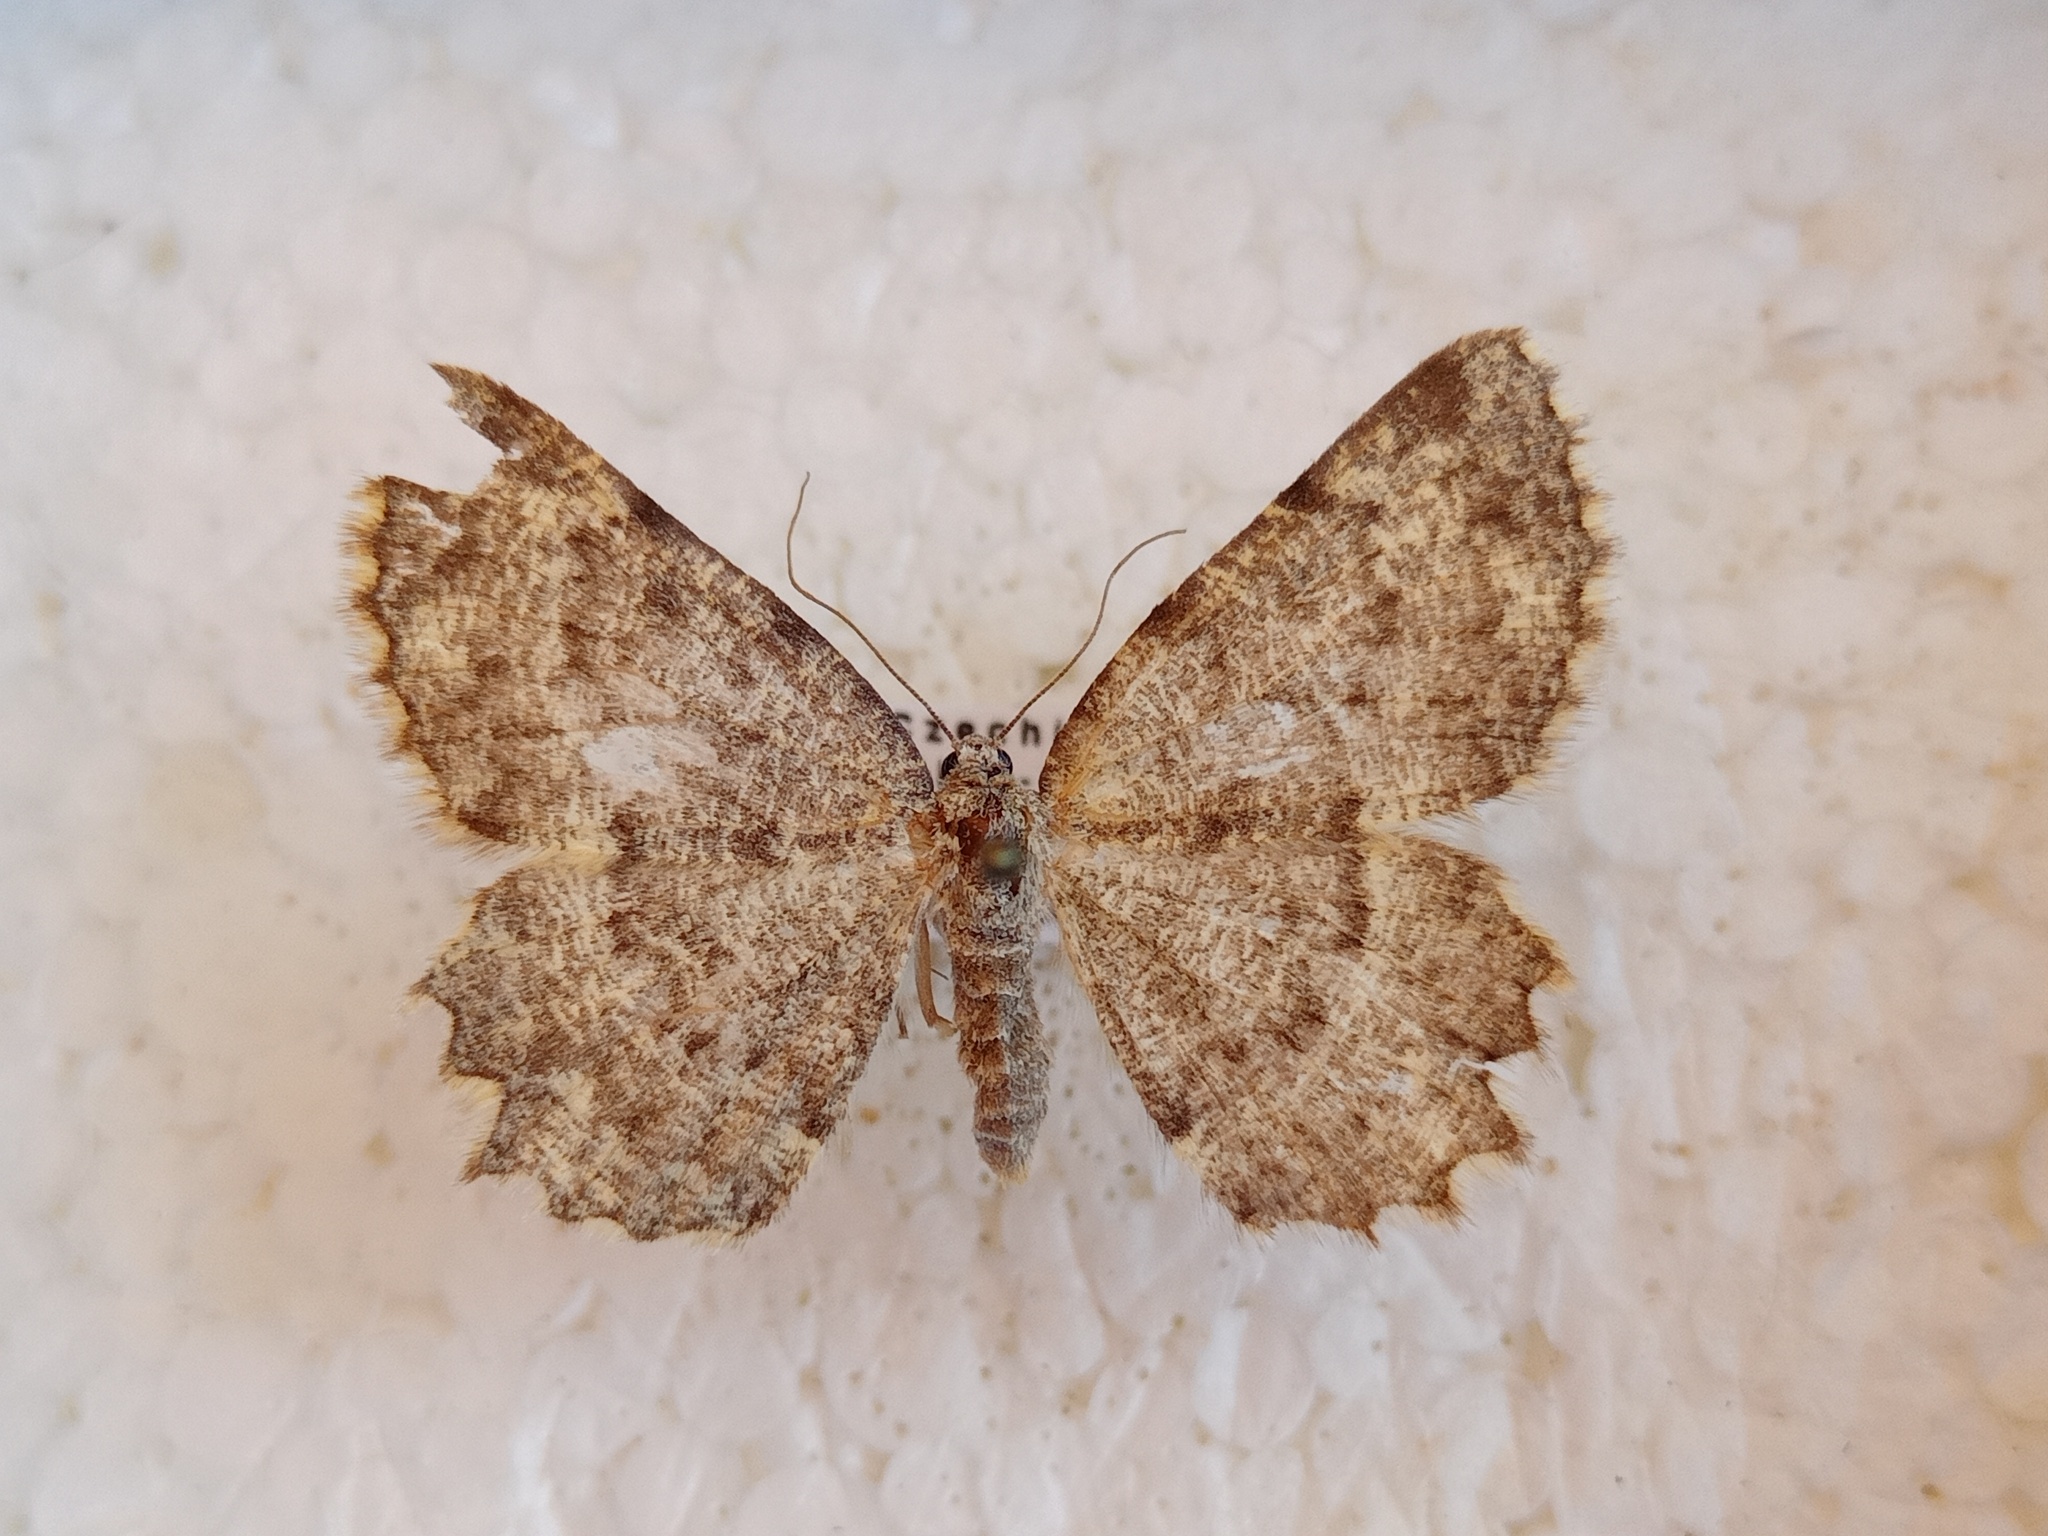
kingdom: Animalia
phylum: Arthropoda
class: Insecta
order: Lepidoptera
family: Geometridae
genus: Charissa
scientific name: Charissa supinaria
